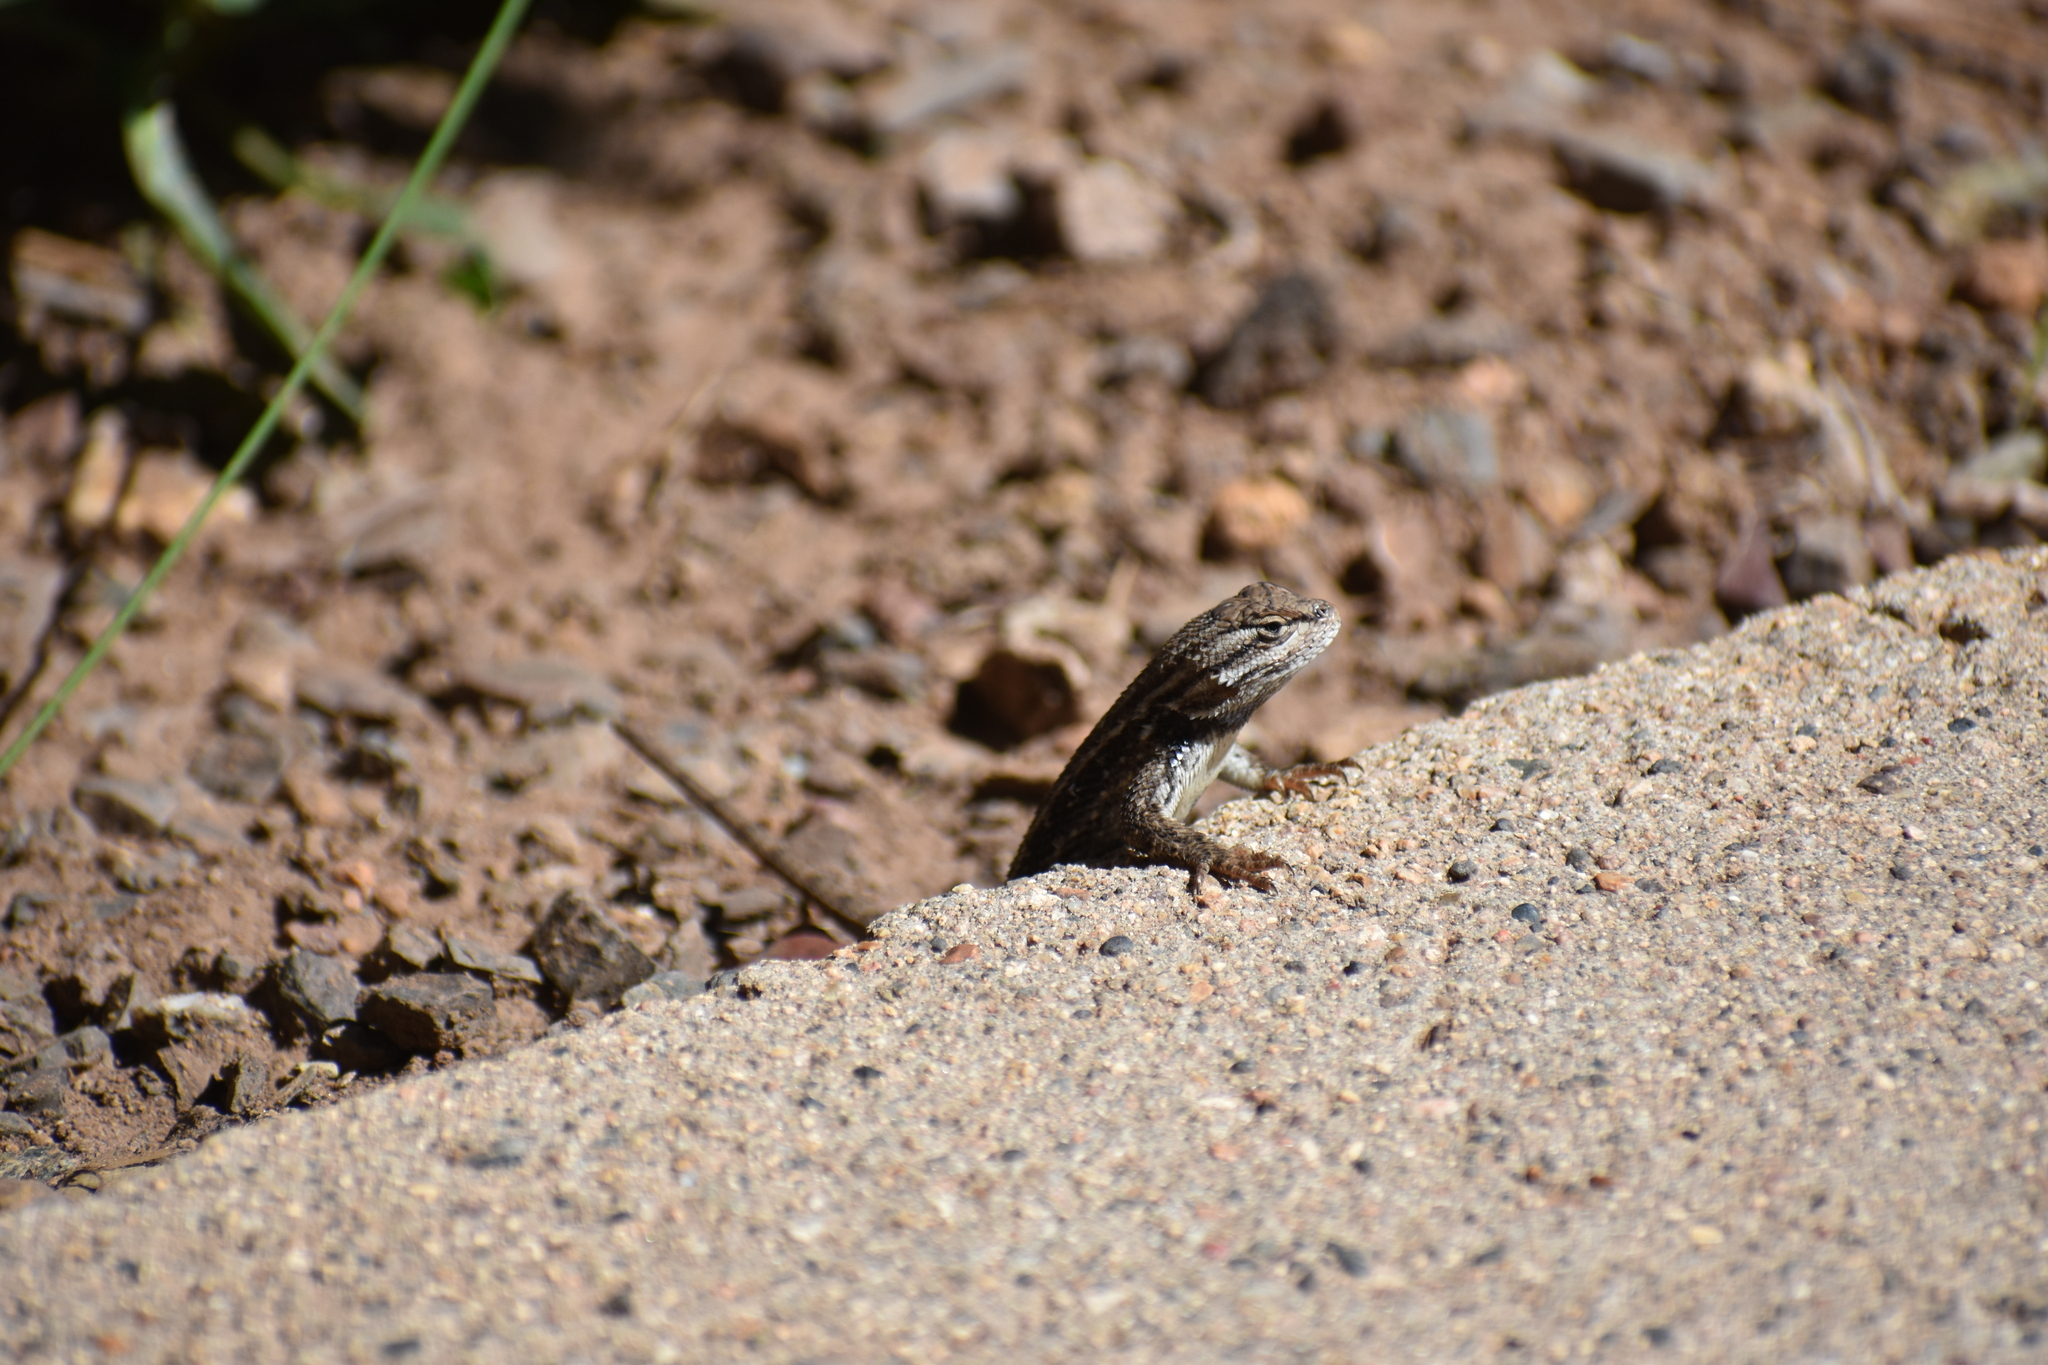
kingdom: Animalia
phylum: Chordata
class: Squamata
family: Phrynosomatidae
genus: Sceloporus
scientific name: Sceloporus tristichus
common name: Plateau fence lizard
